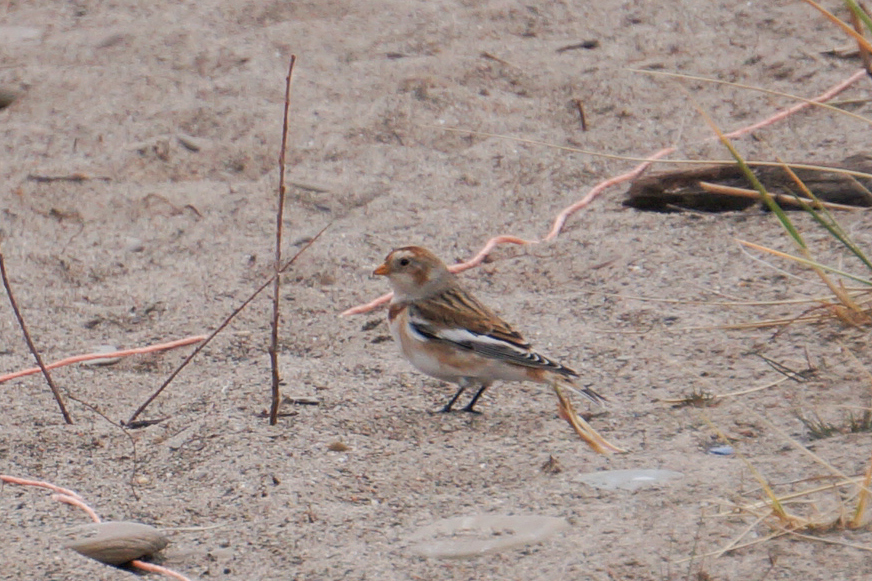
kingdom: Animalia
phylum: Chordata
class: Aves
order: Passeriformes
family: Calcariidae
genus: Plectrophenax
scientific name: Plectrophenax nivalis
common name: Snow bunting
